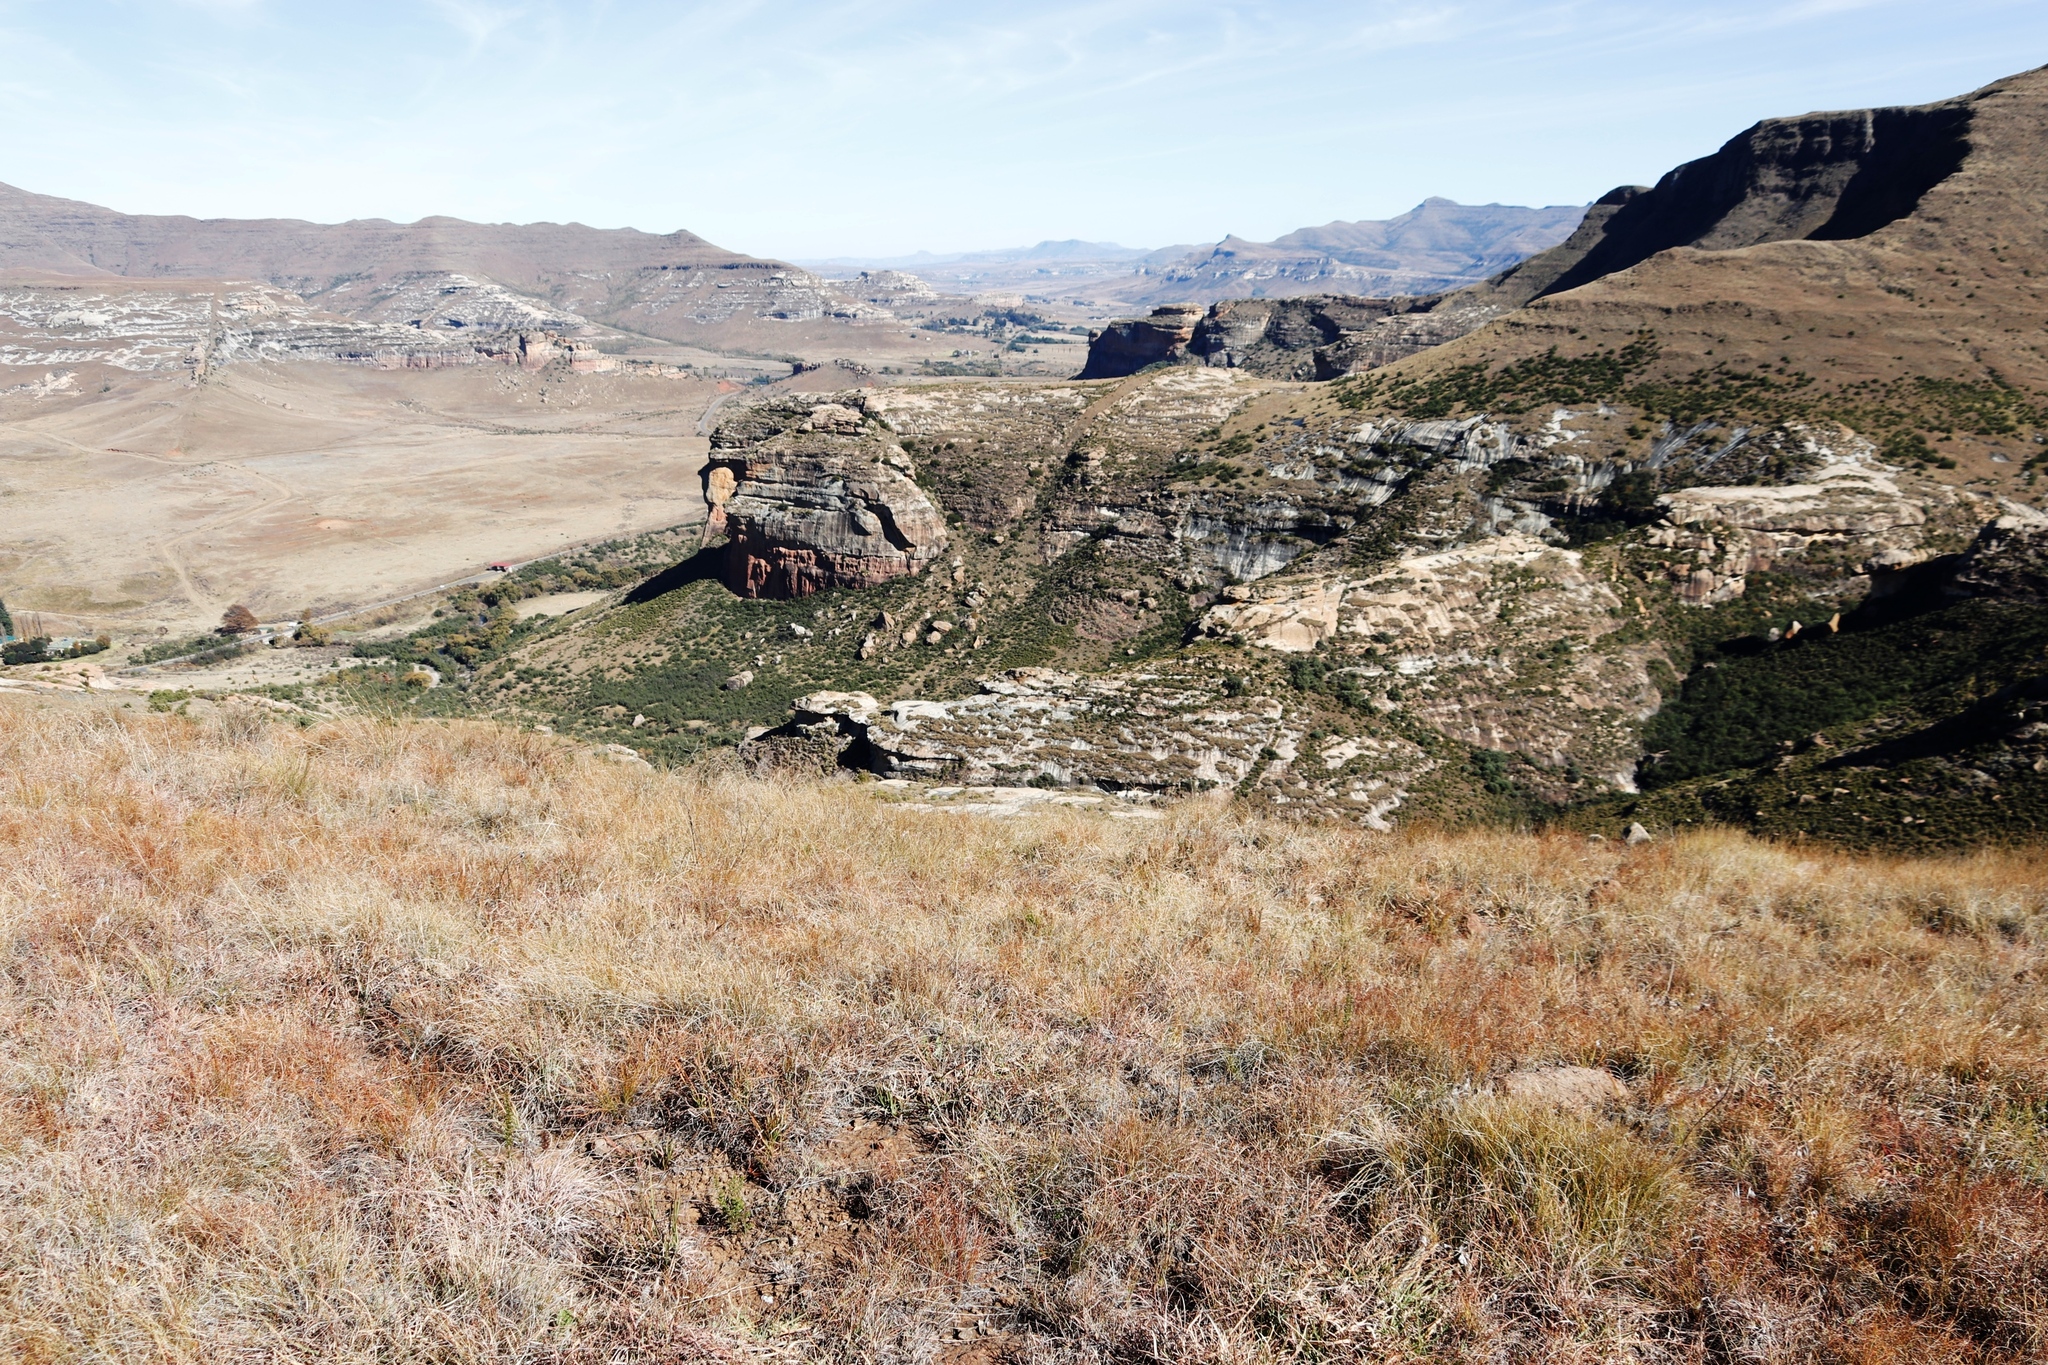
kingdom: Plantae
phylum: Tracheophyta
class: Liliopsida
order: Poales
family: Poaceae
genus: Themeda
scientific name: Themeda triandra
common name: Kangaroo grass
